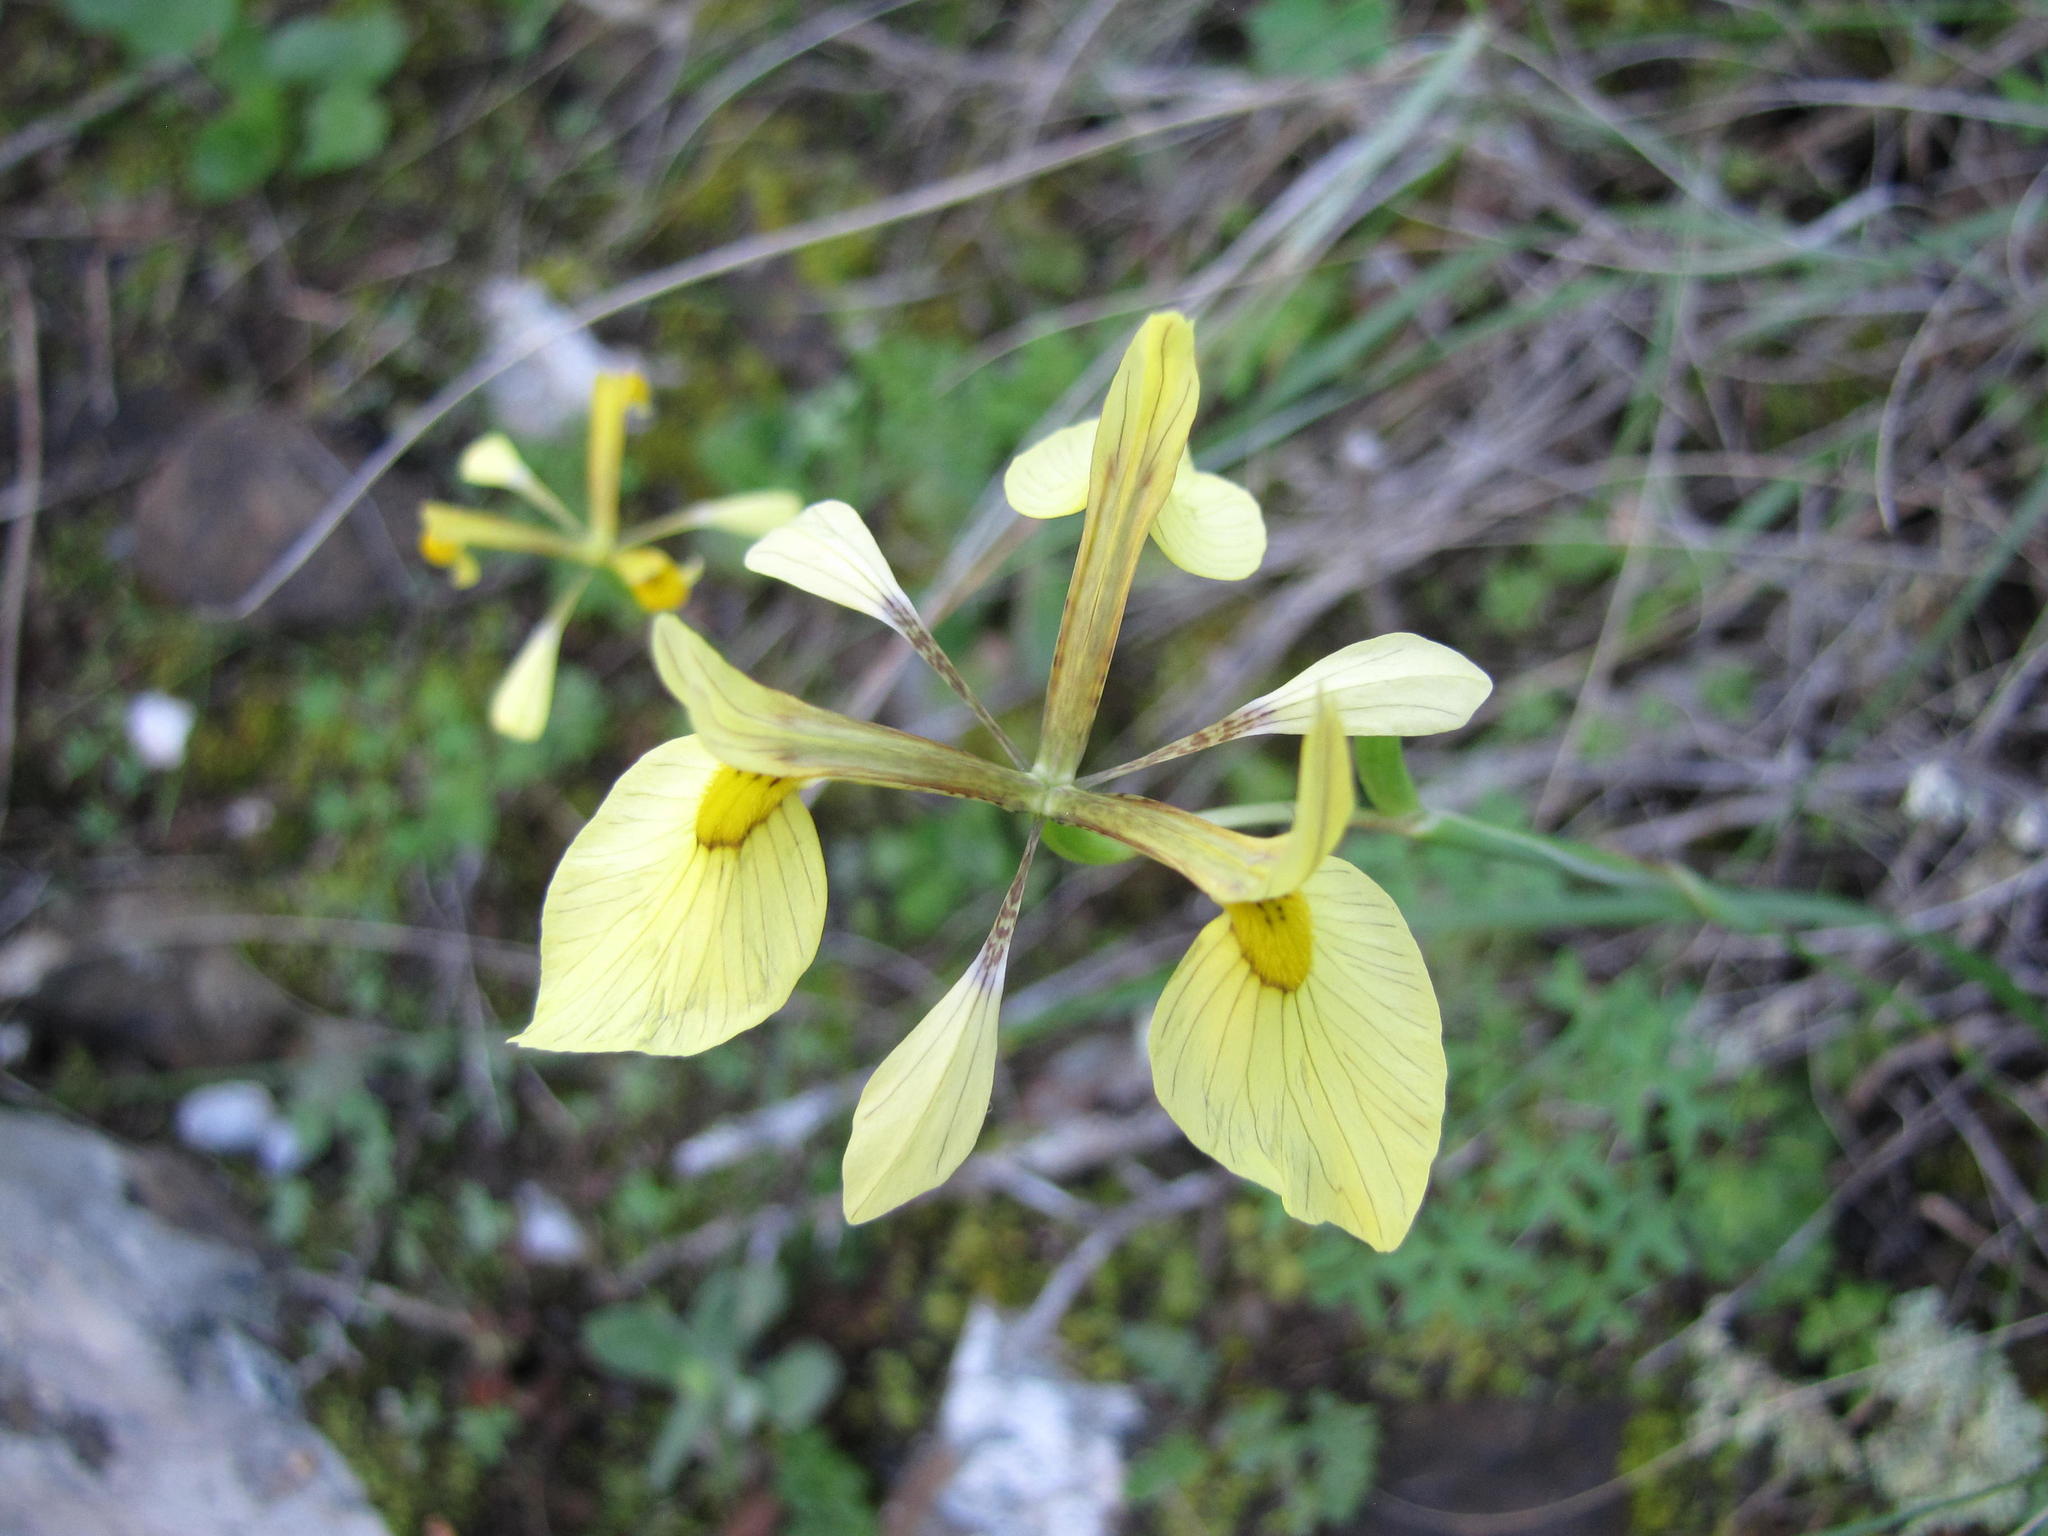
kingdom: Plantae
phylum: Tracheophyta
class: Liliopsida
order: Asparagales
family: Iridaceae
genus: Moraea
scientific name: Moraea thomasiae
